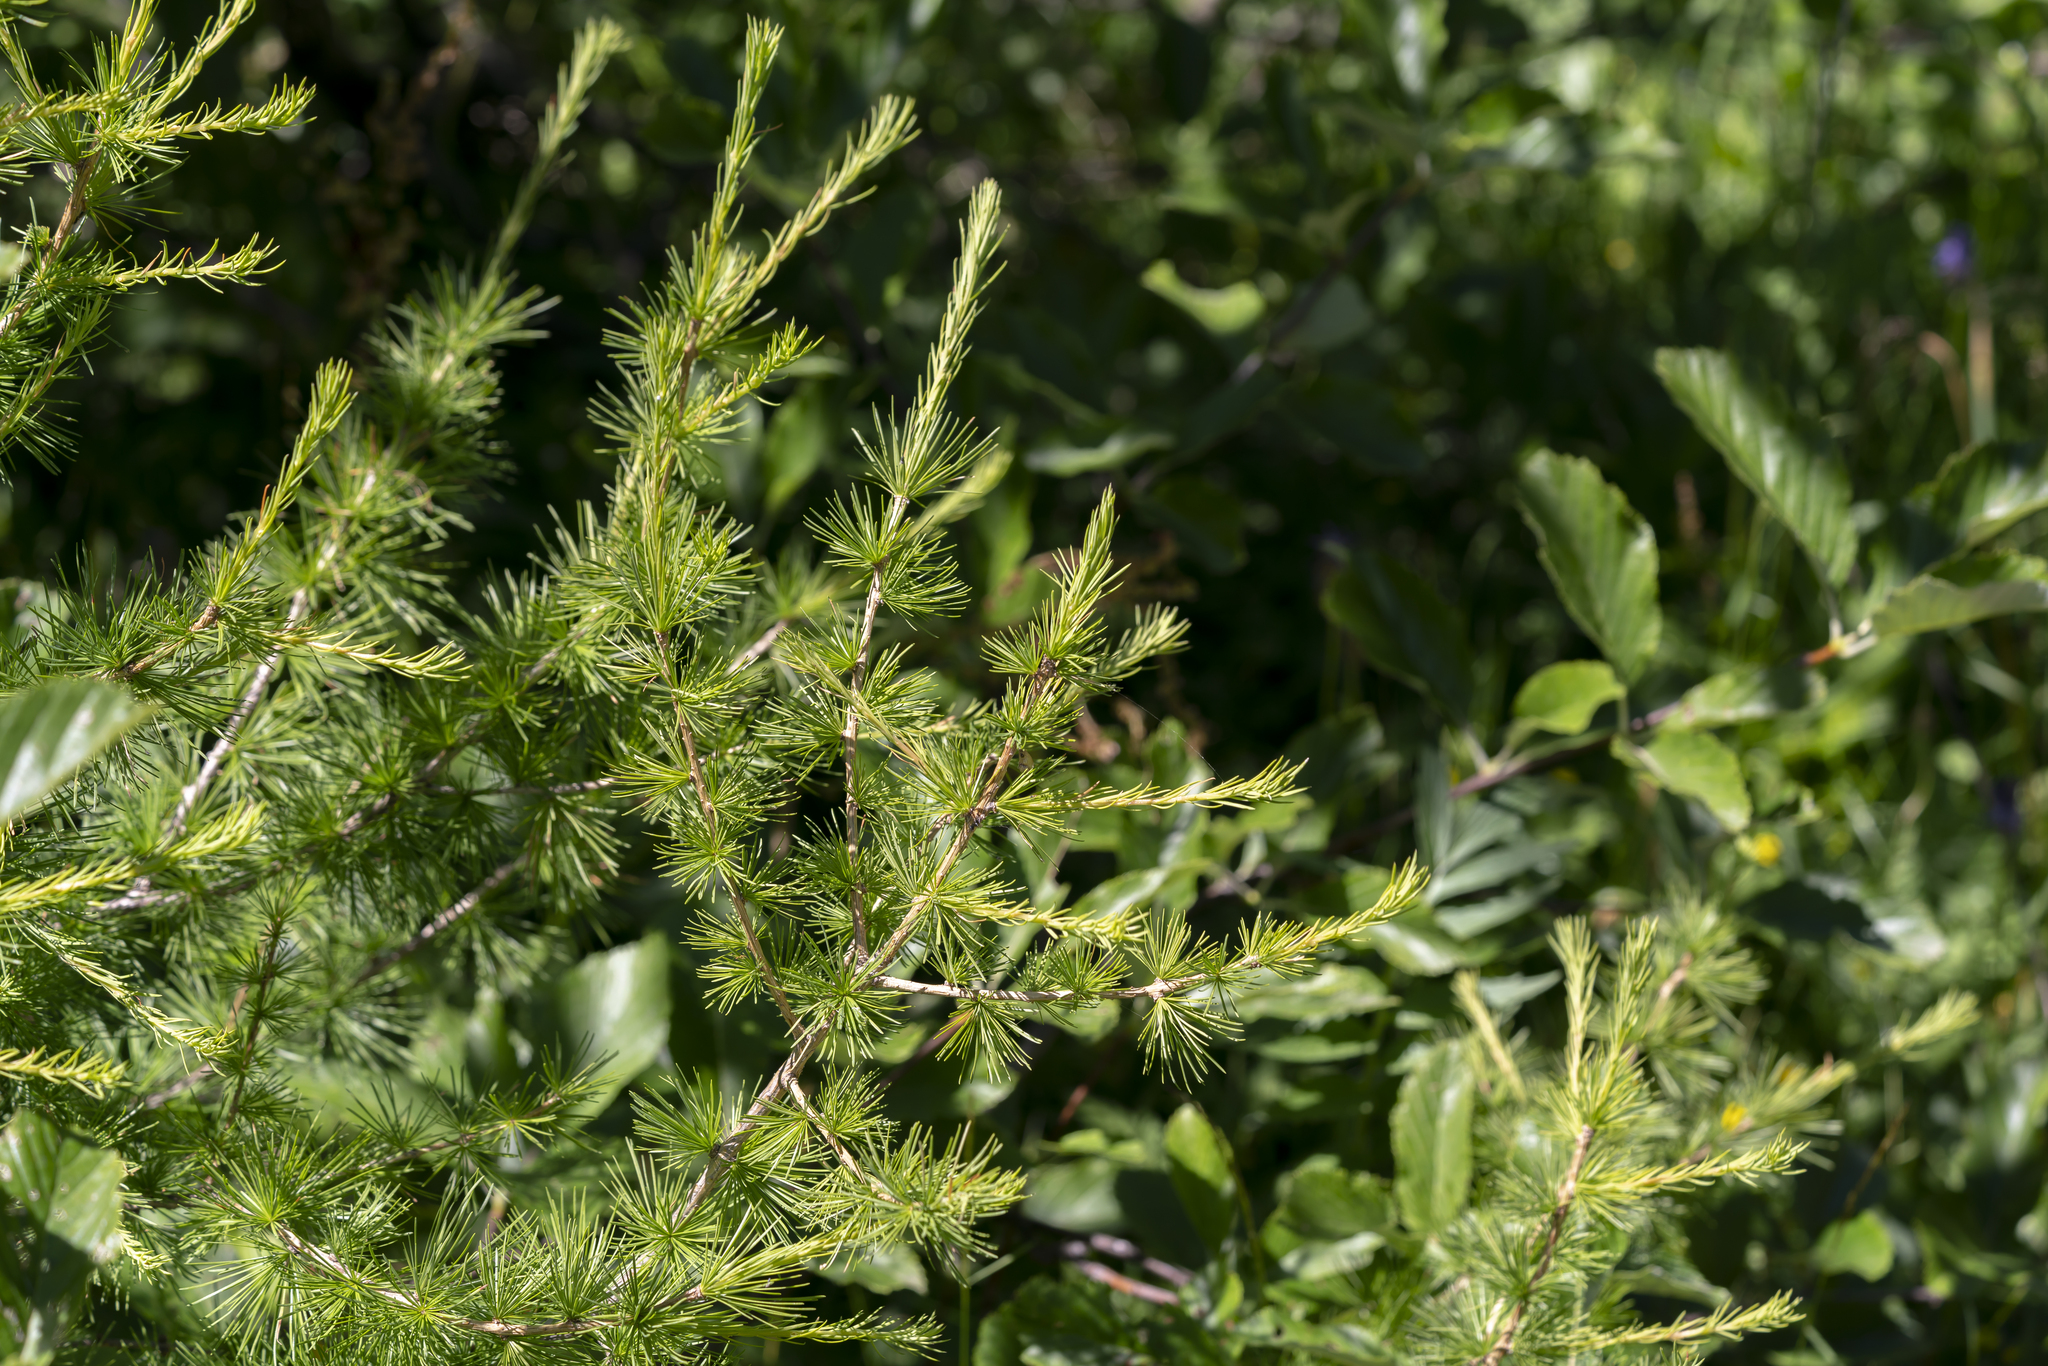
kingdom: Plantae
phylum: Tracheophyta
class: Pinopsida
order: Pinales
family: Pinaceae
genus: Larix
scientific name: Larix decidua
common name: European larch
